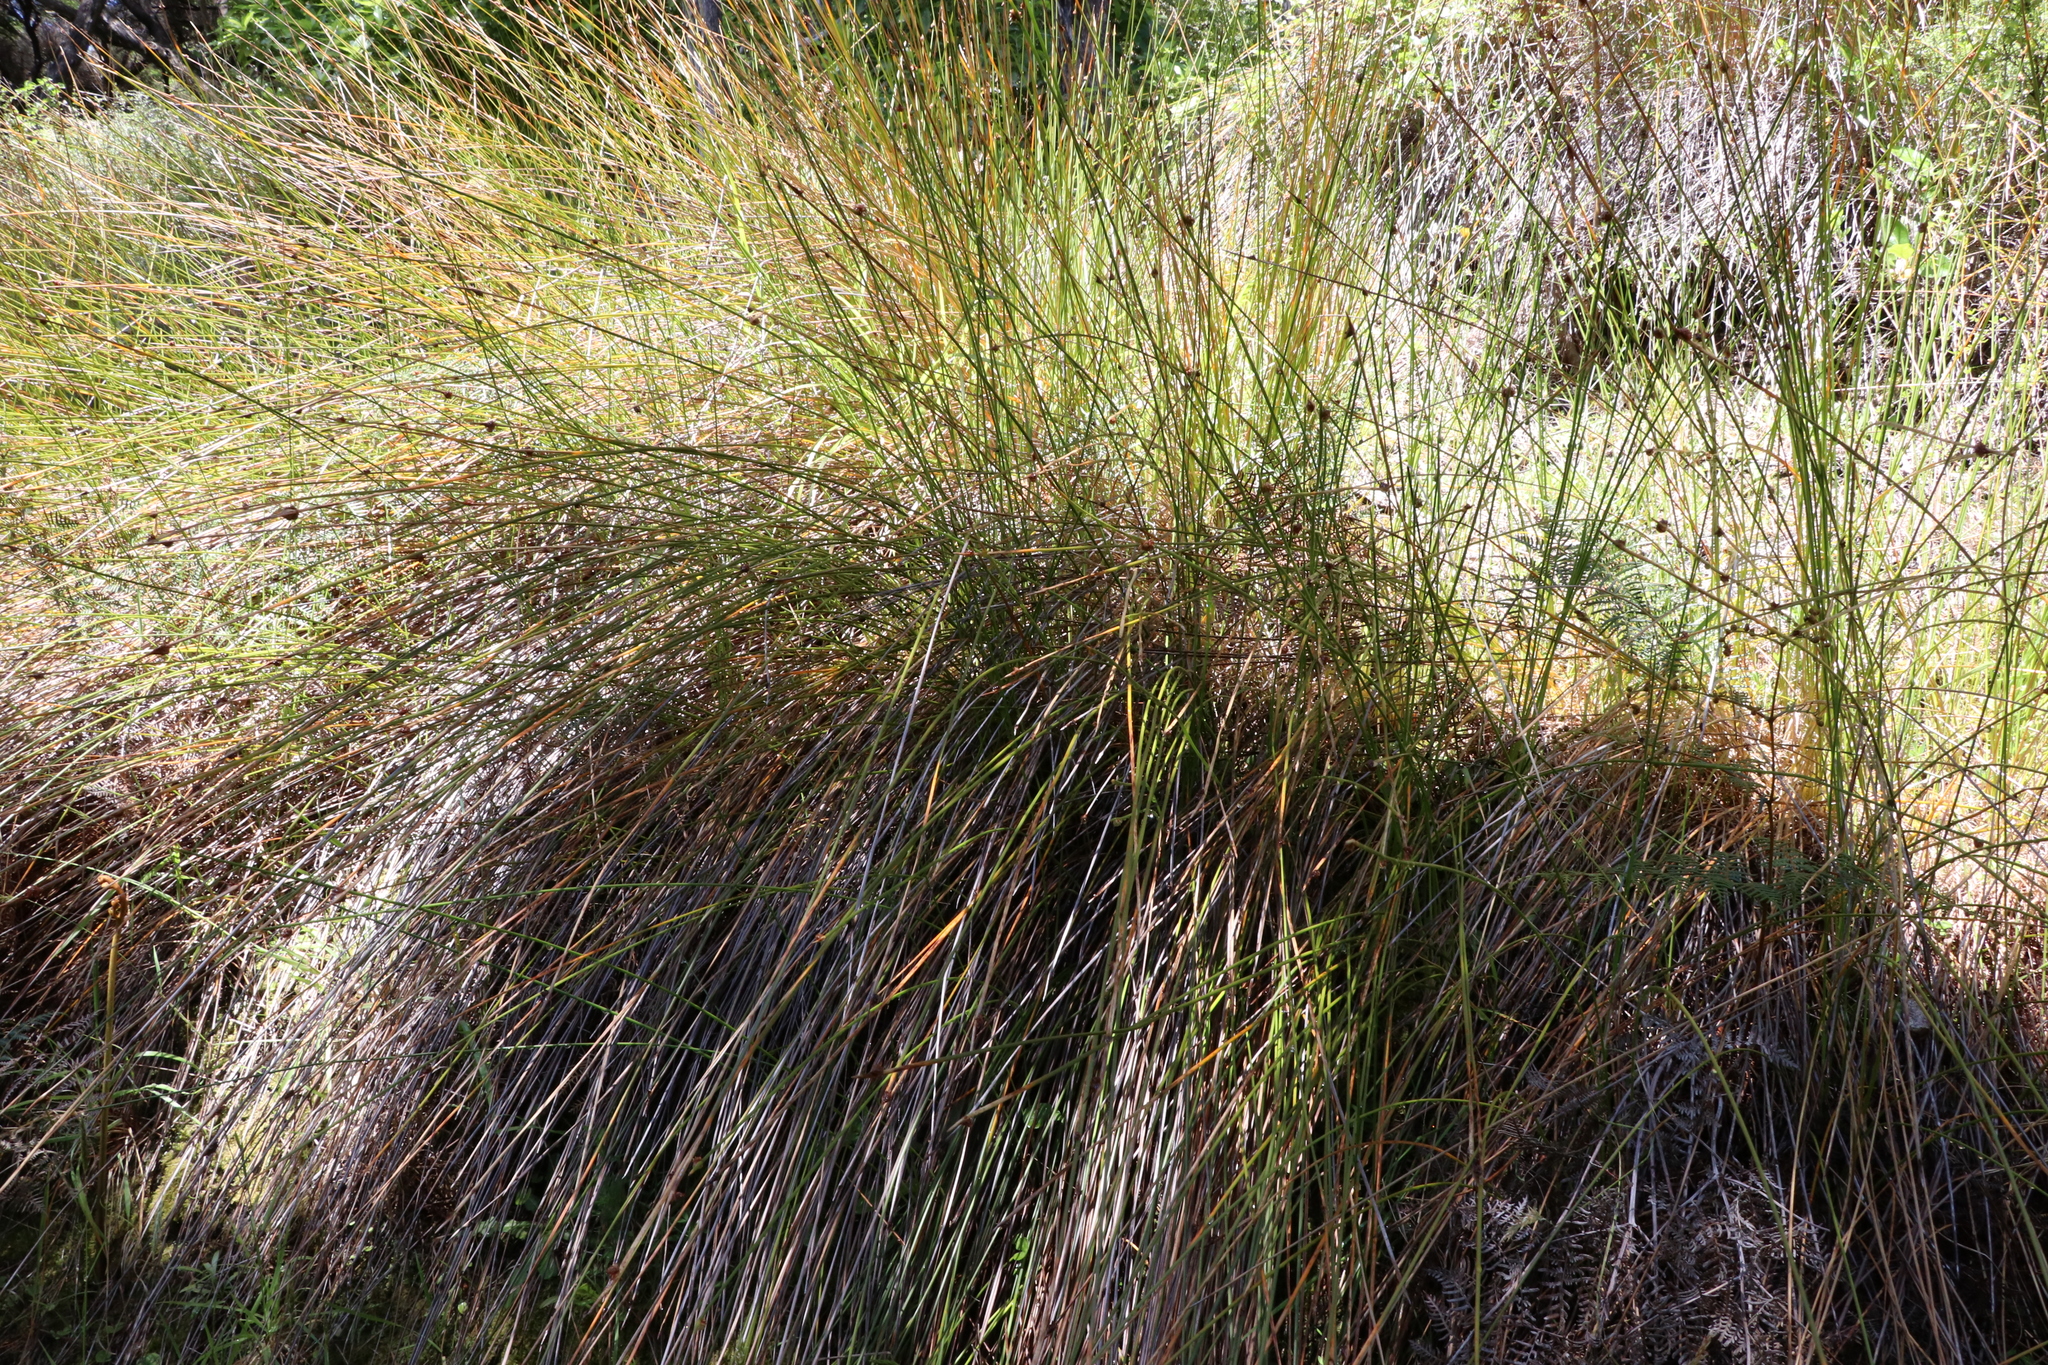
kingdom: Plantae
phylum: Tracheophyta
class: Liliopsida
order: Poales
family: Cyperaceae
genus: Ficinia
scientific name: Ficinia nodosa
